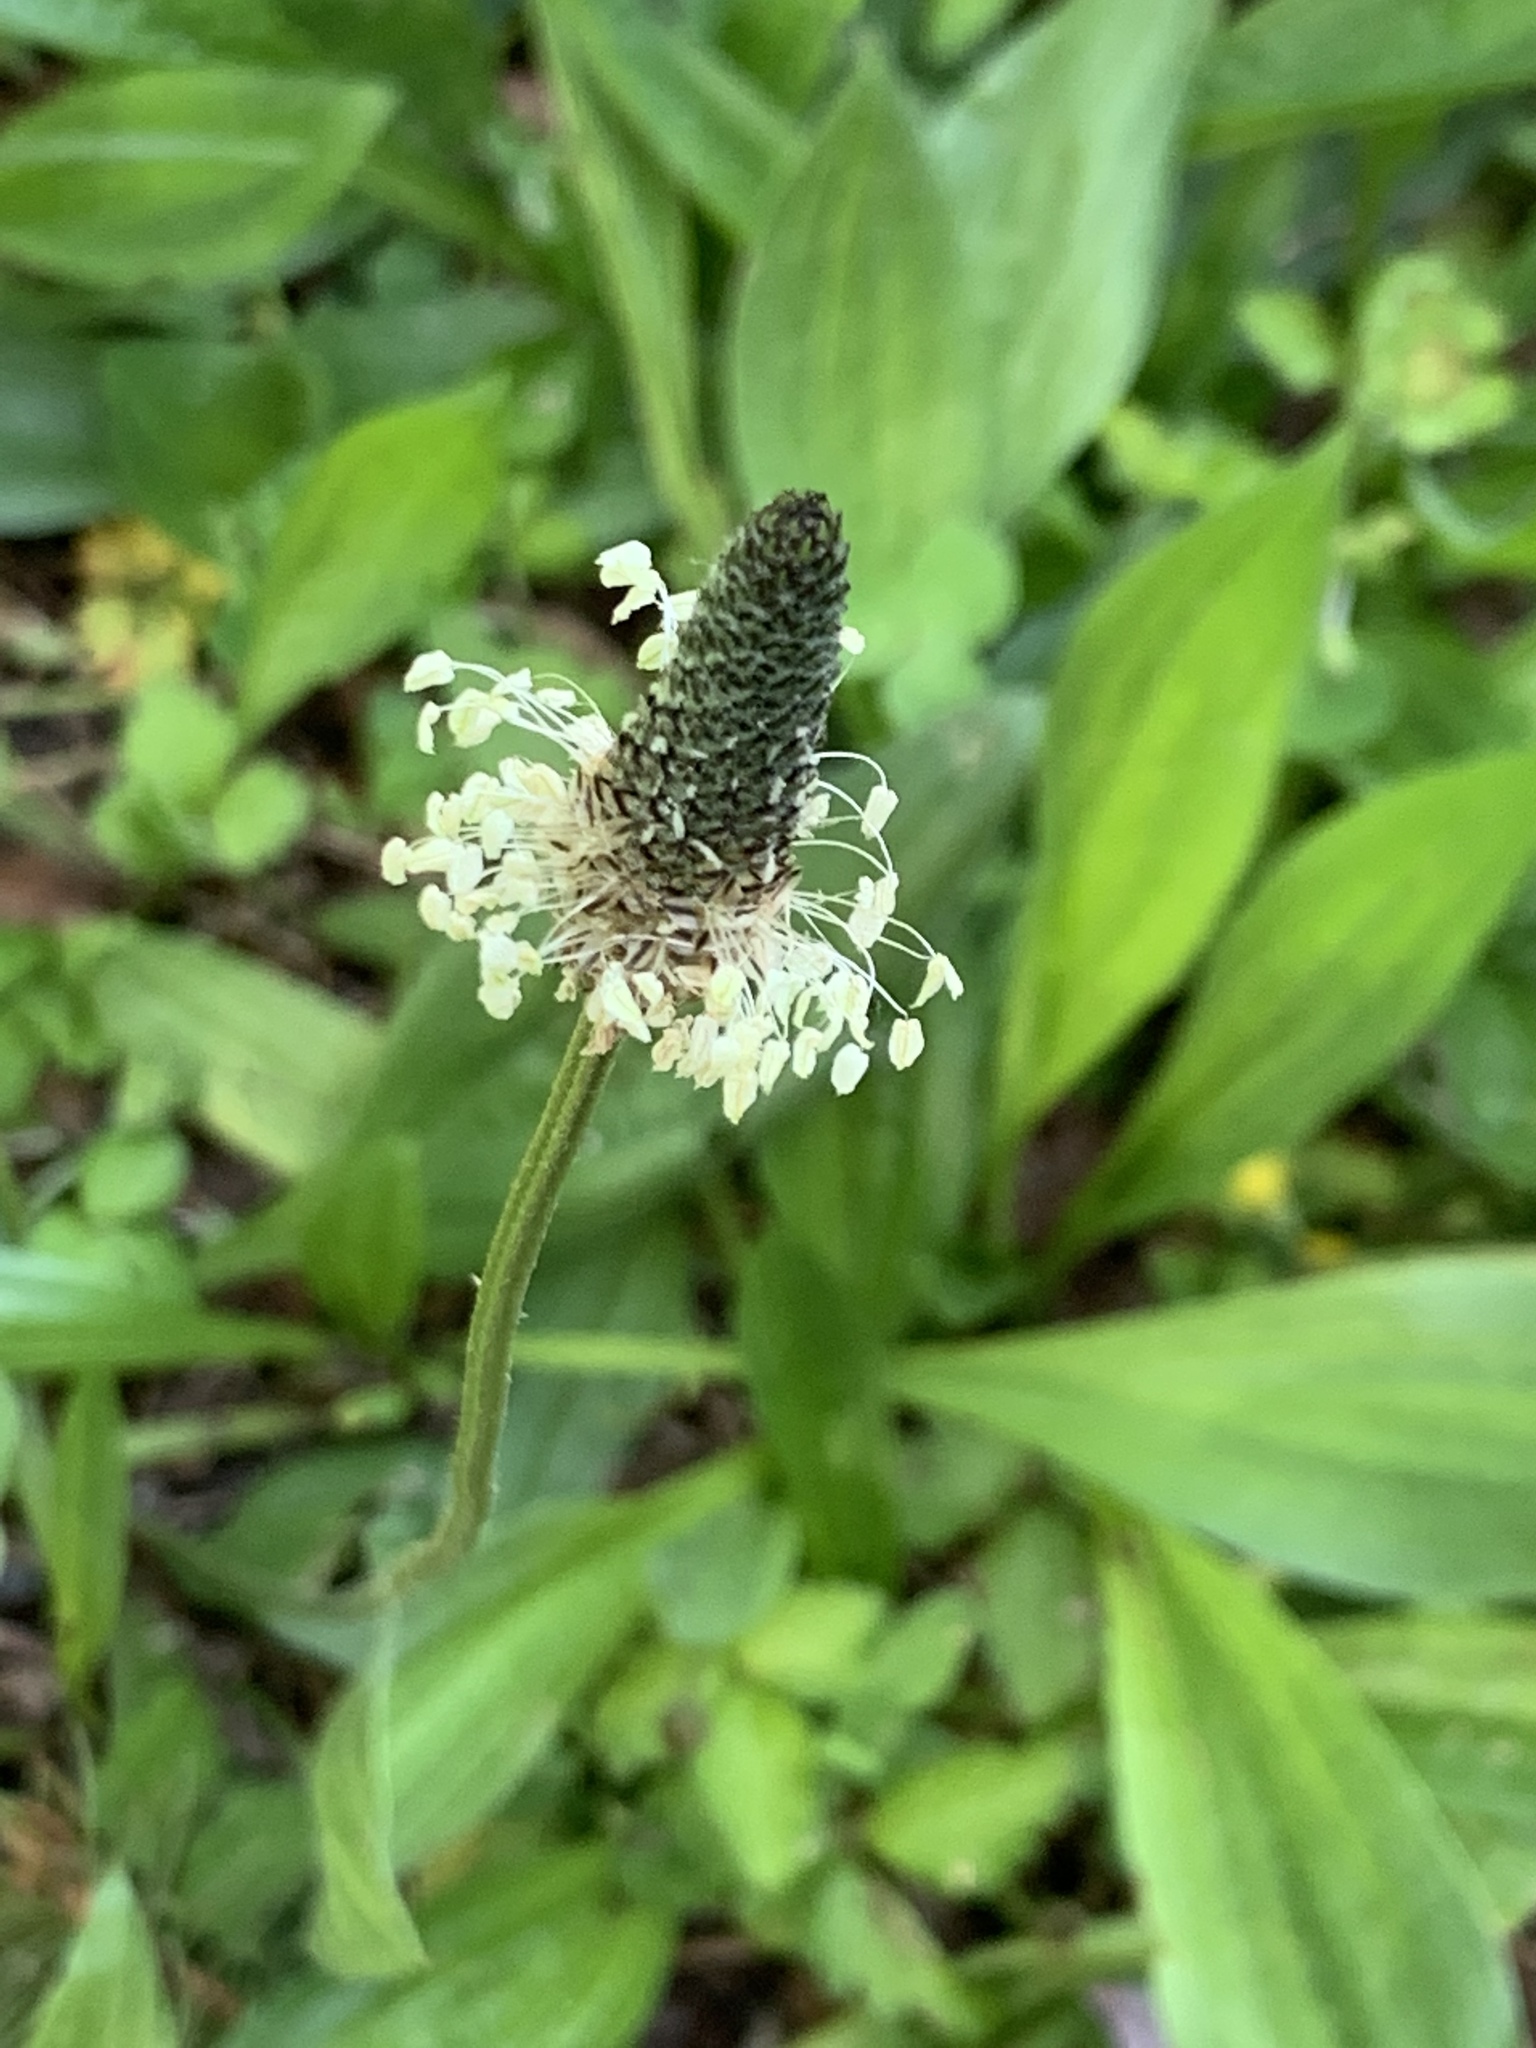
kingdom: Plantae
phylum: Tracheophyta
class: Magnoliopsida
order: Lamiales
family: Plantaginaceae
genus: Plantago
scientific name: Plantago lanceolata
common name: Ribwort plantain
